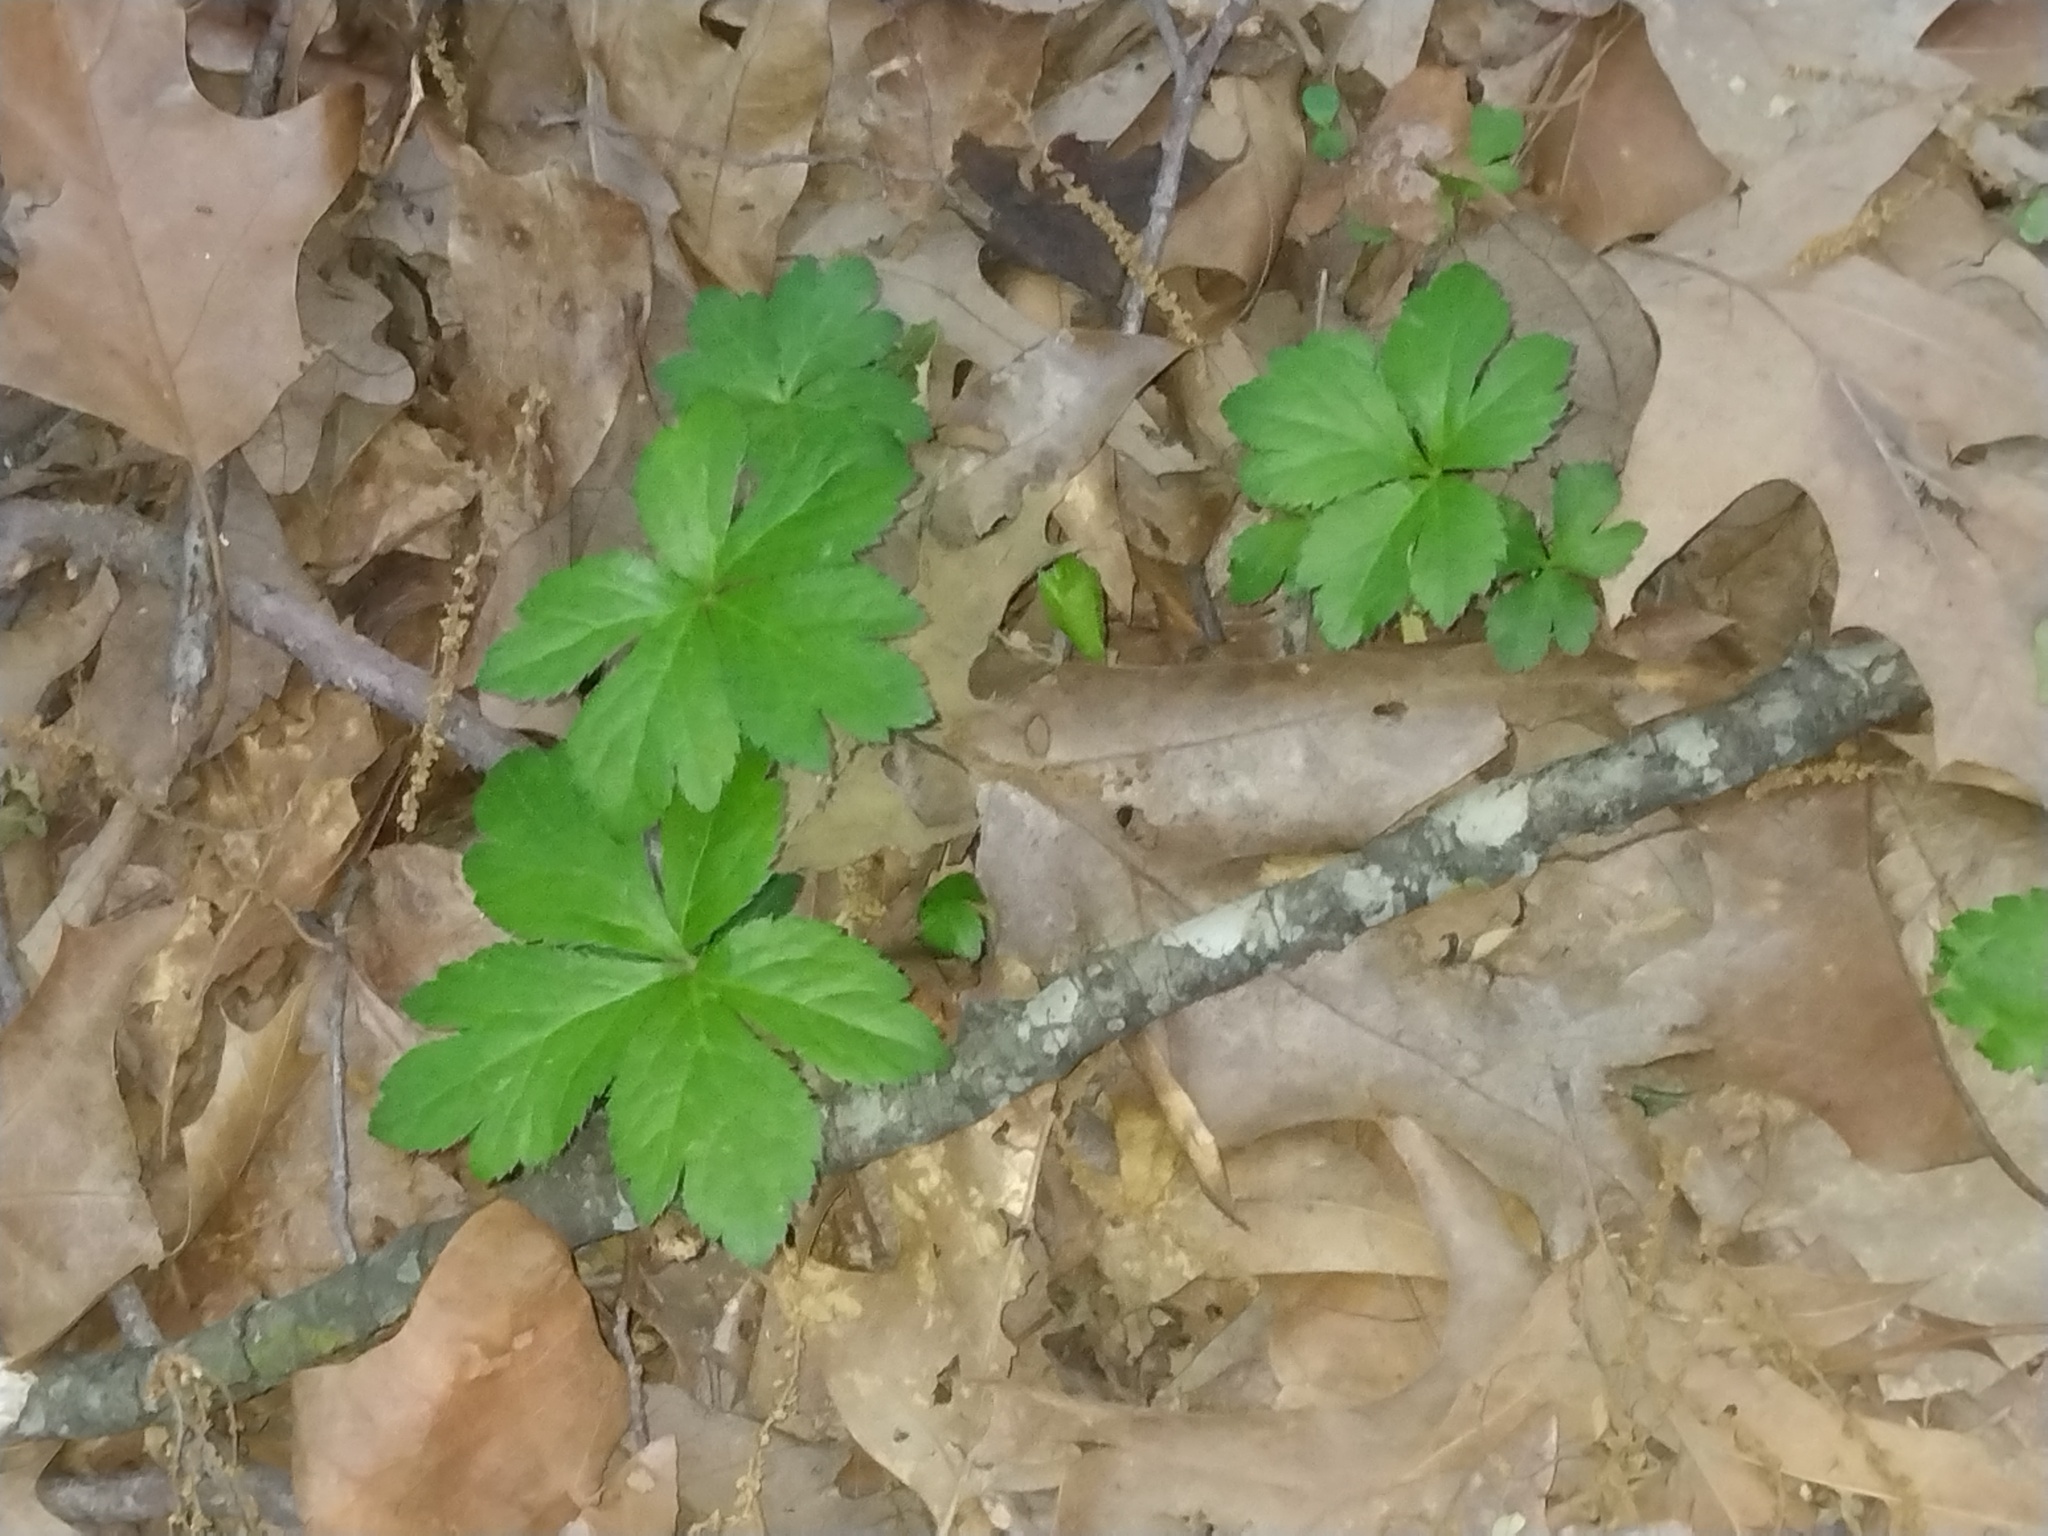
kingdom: Plantae
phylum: Tracheophyta
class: Magnoliopsida
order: Apiales
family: Apiaceae
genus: Sanicula
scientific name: Sanicula canadensis
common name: Canada sanicle
